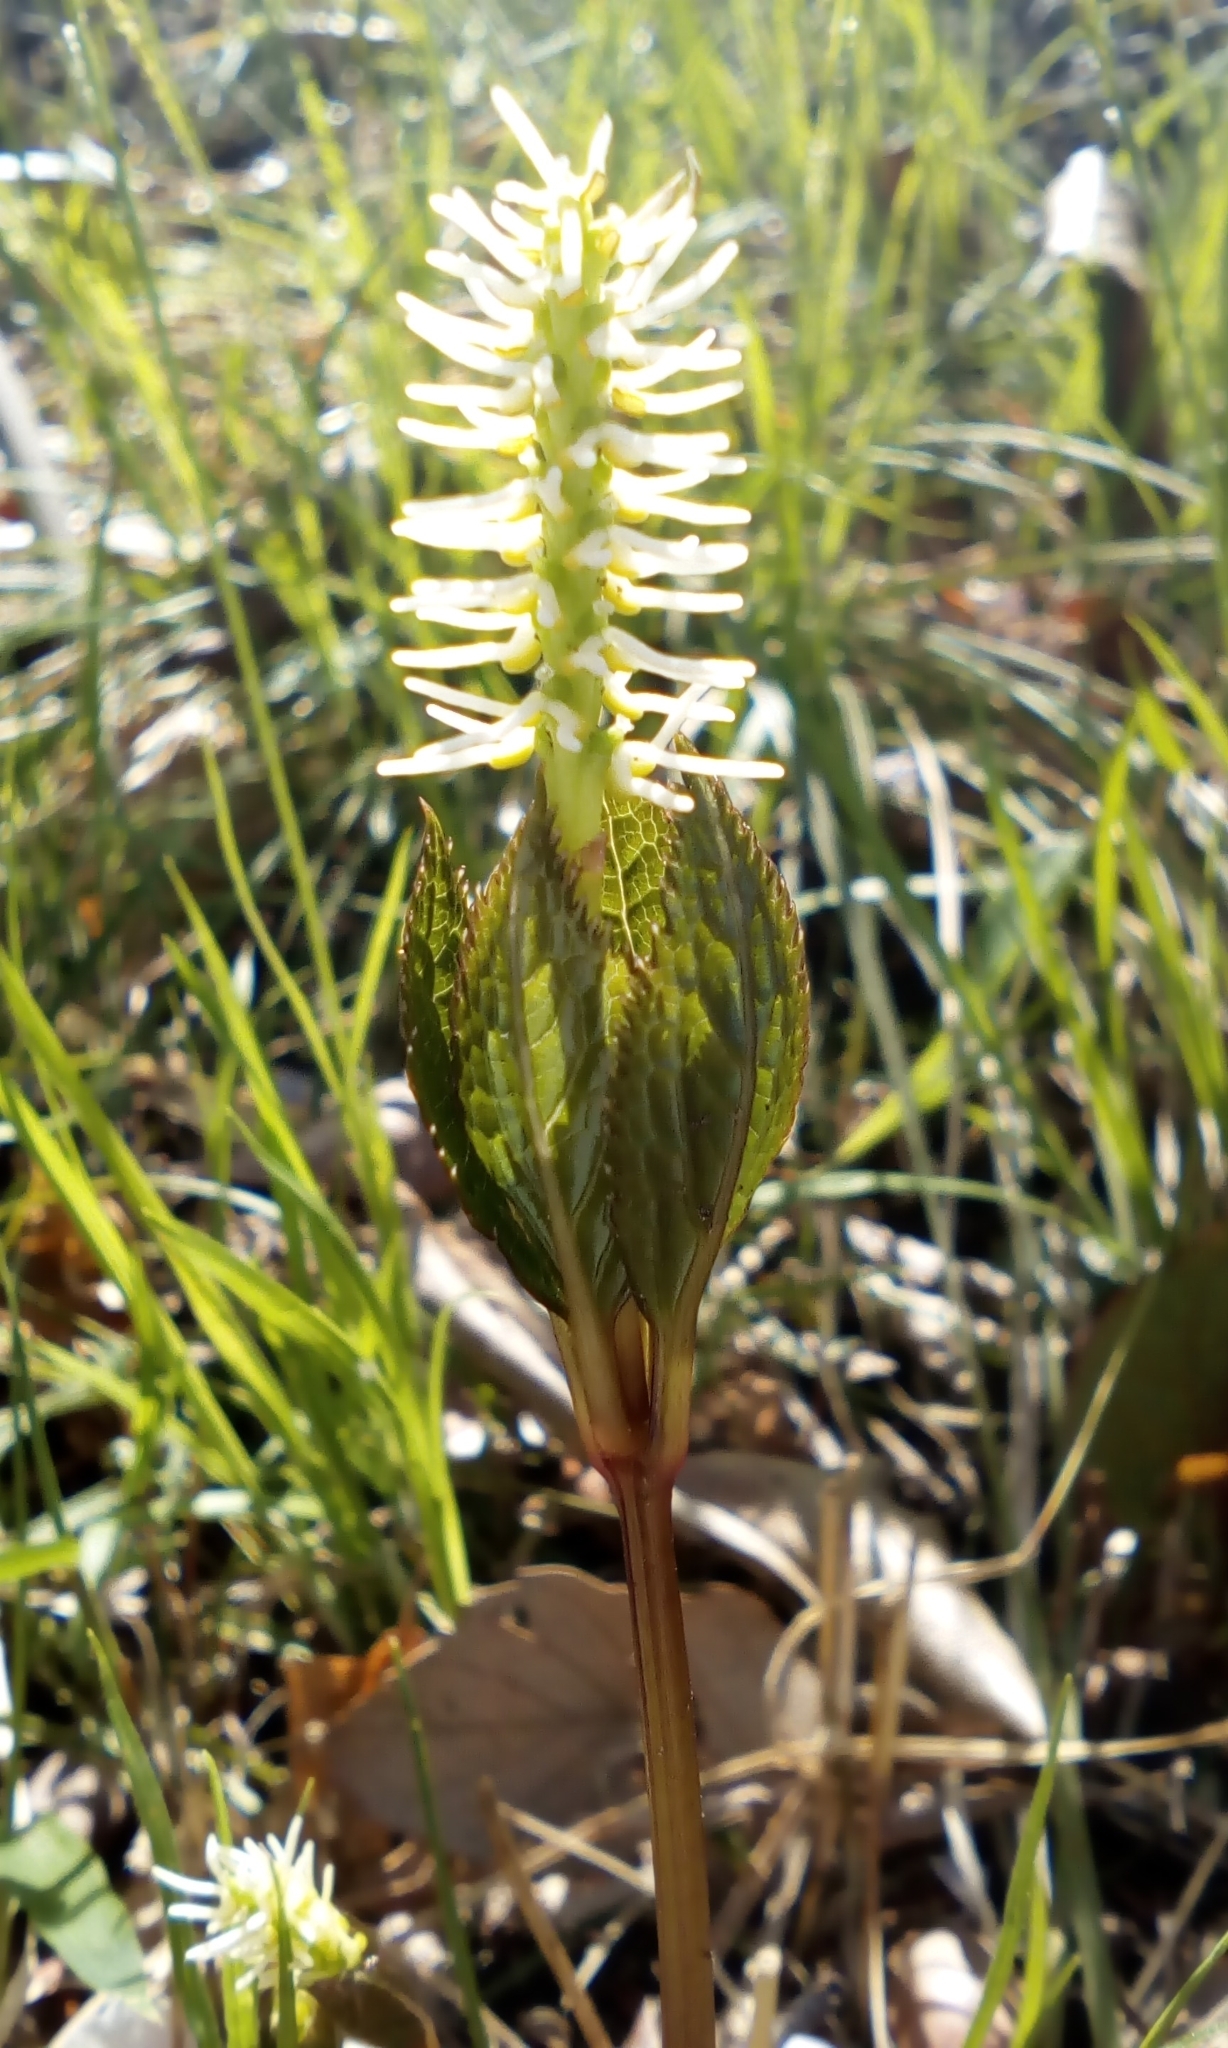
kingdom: Plantae
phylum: Tracheophyta
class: Magnoliopsida
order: Chloranthales
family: Chloranthaceae
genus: Chloranthus
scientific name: Chloranthus quadrifolius
